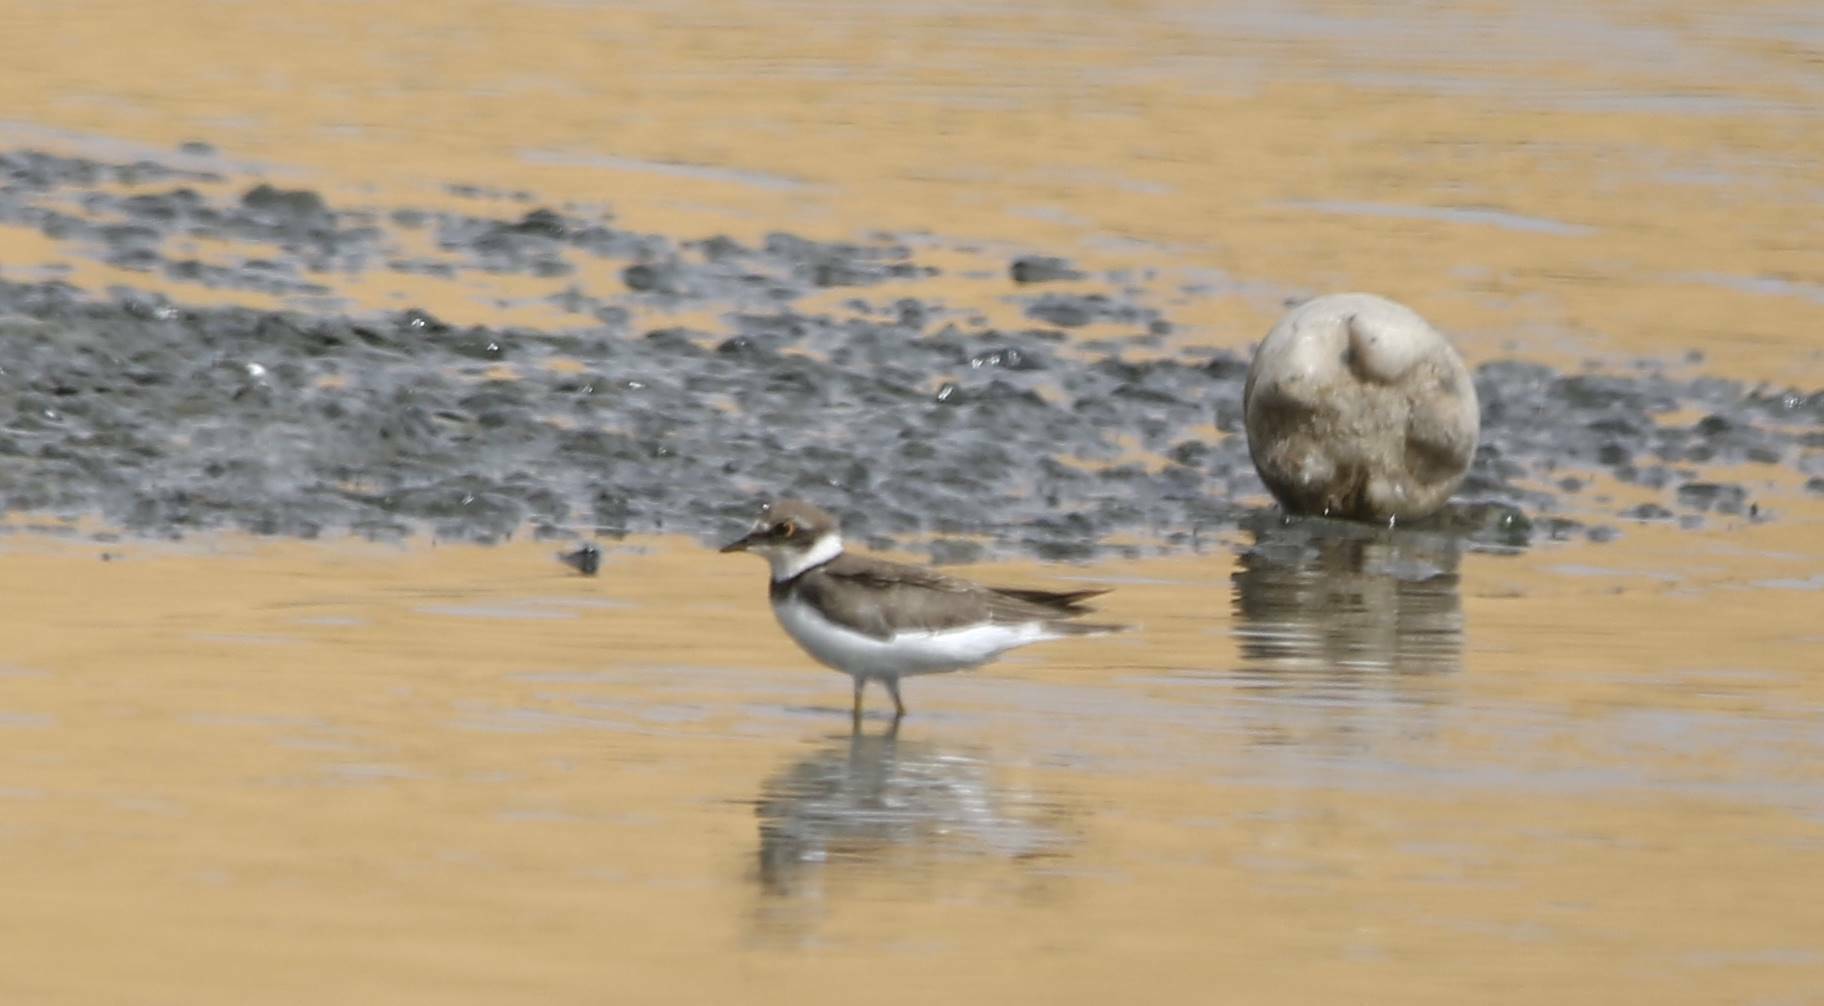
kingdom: Animalia
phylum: Chordata
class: Aves
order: Charadriiformes
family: Charadriidae
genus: Charadrius
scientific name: Charadrius dubius
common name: Little ringed plover
